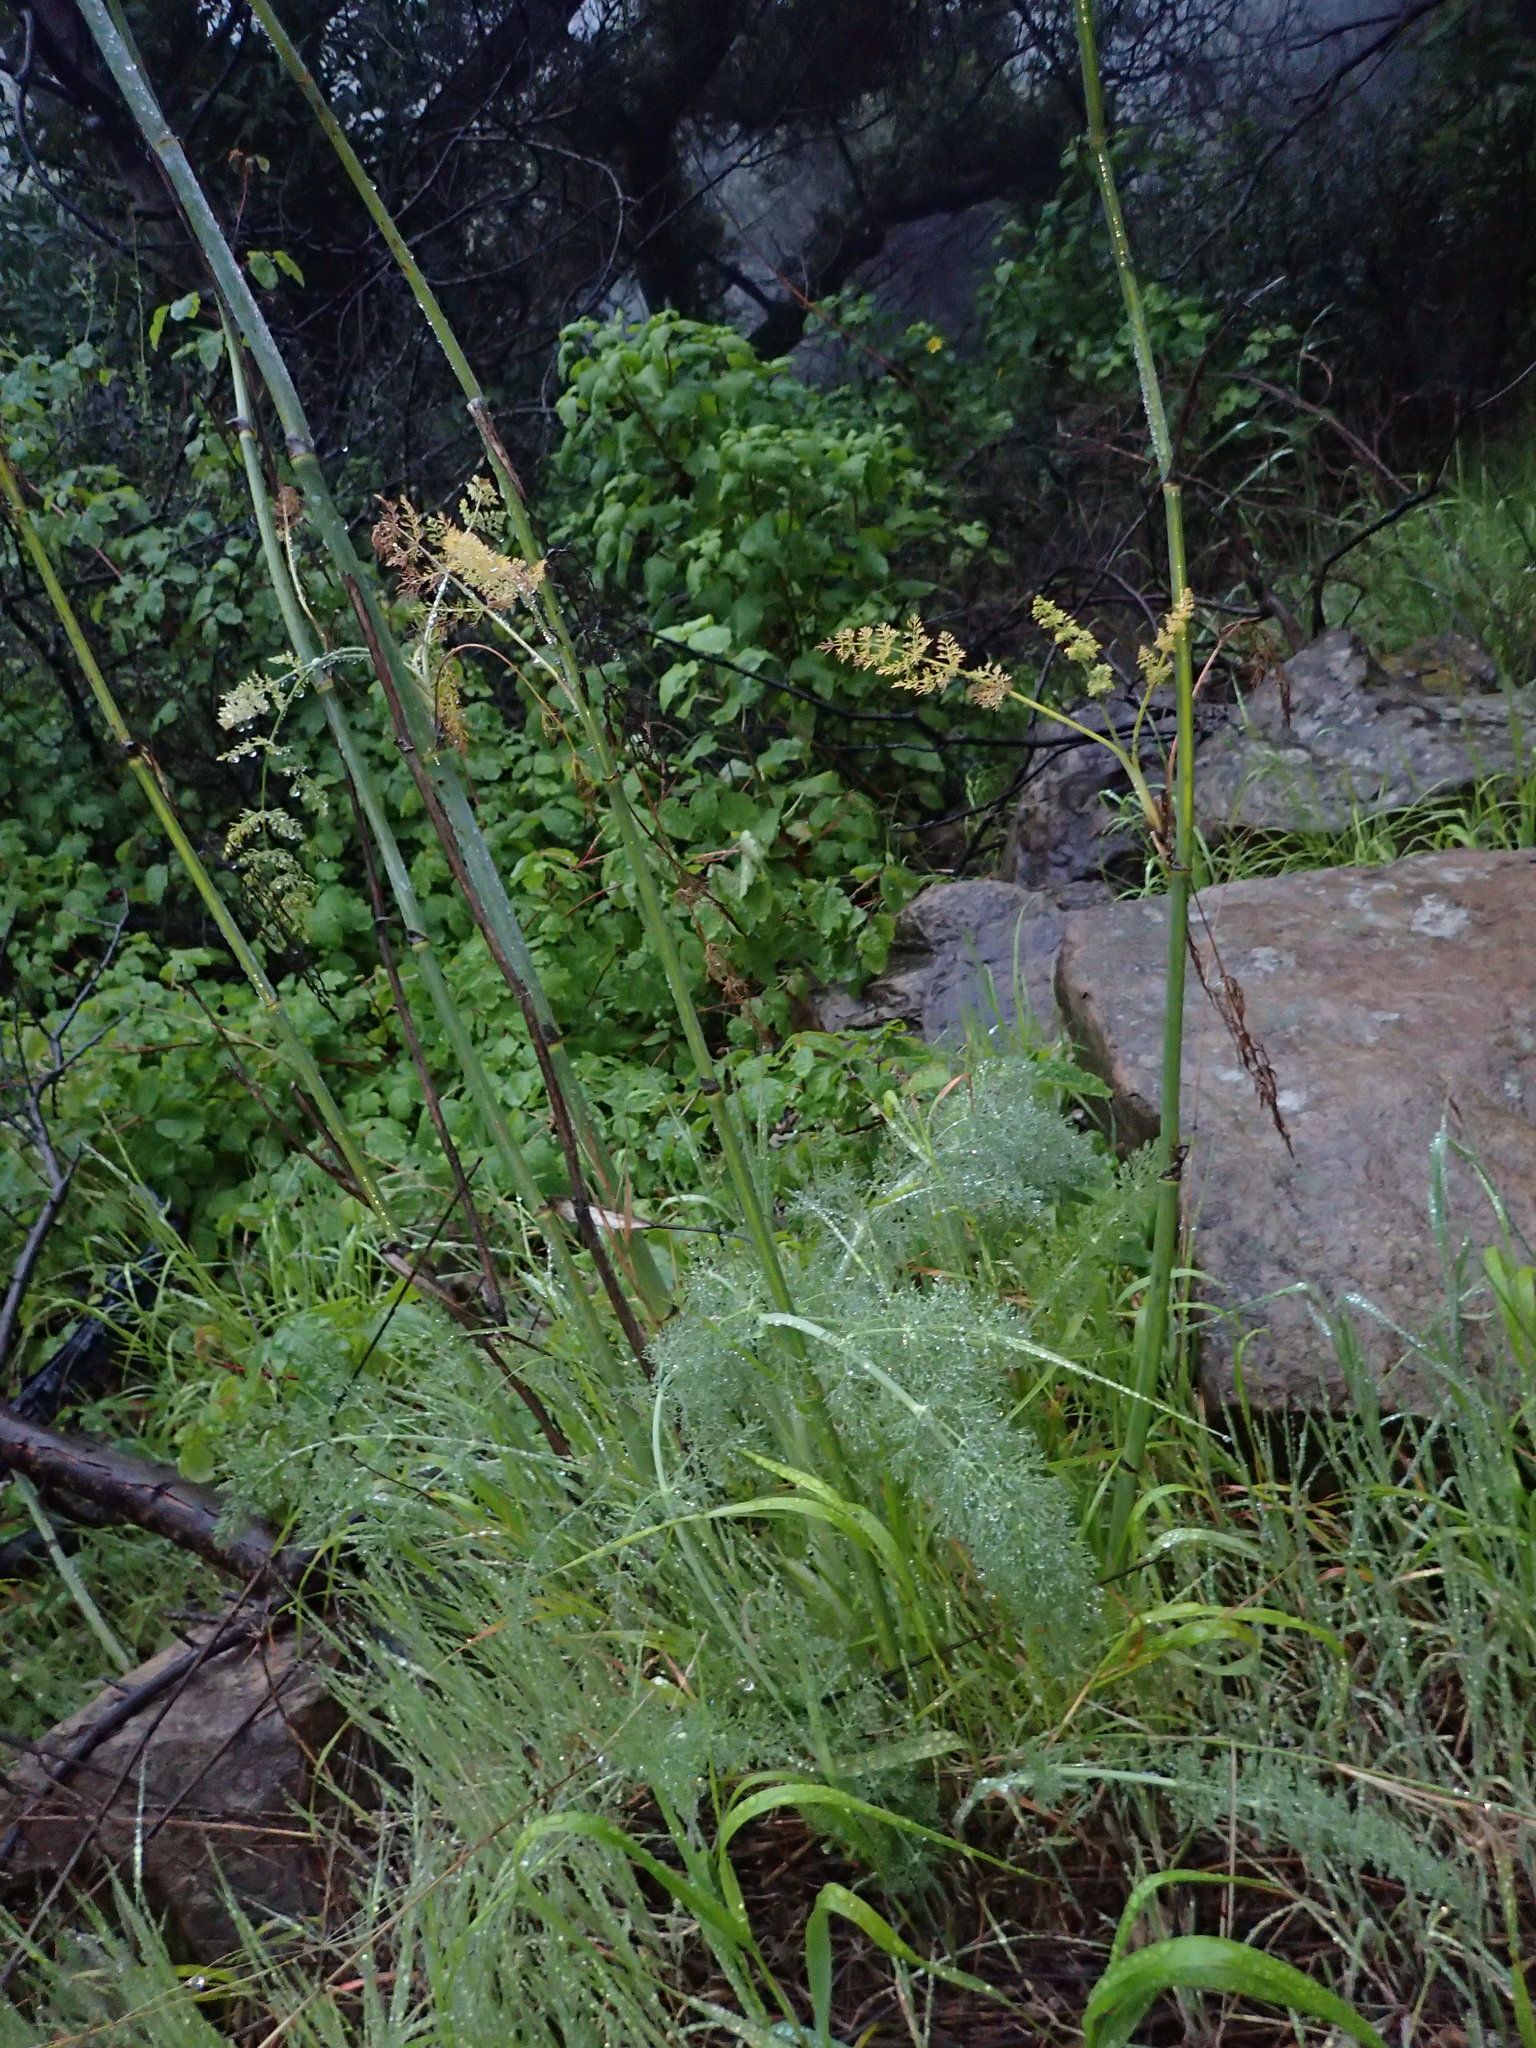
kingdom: Plantae
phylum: Tracheophyta
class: Magnoliopsida
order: Apiales
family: Apiaceae
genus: Foeniculum
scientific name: Foeniculum vulgare
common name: Fennel
